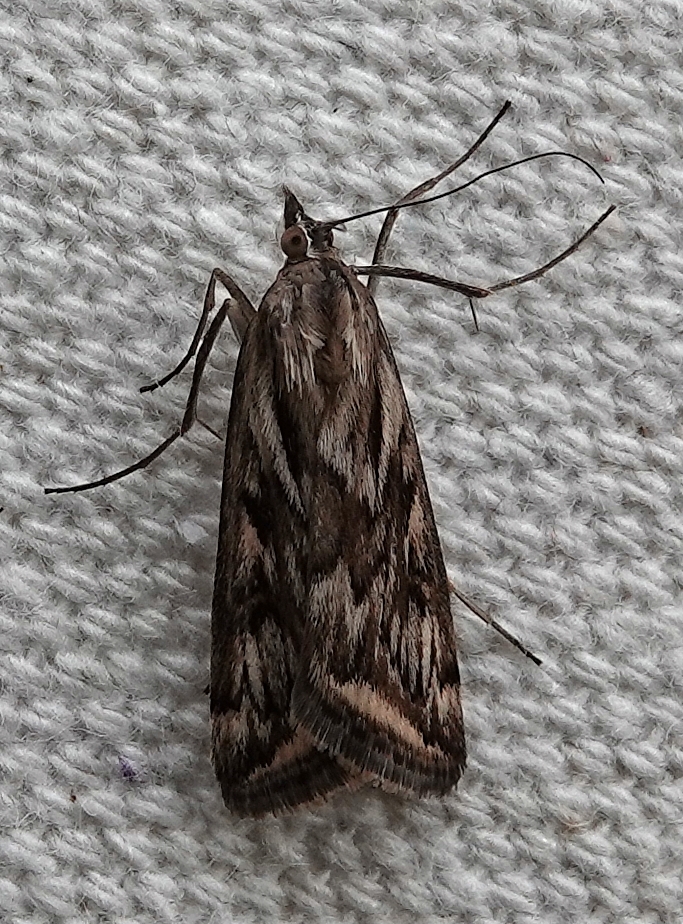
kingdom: Animalia
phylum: Arthropoda
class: Insecta
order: Lepidoptera
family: Crambidae
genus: Loxostege
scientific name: Loxostege cereralis
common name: Alfalfa webworm moth
